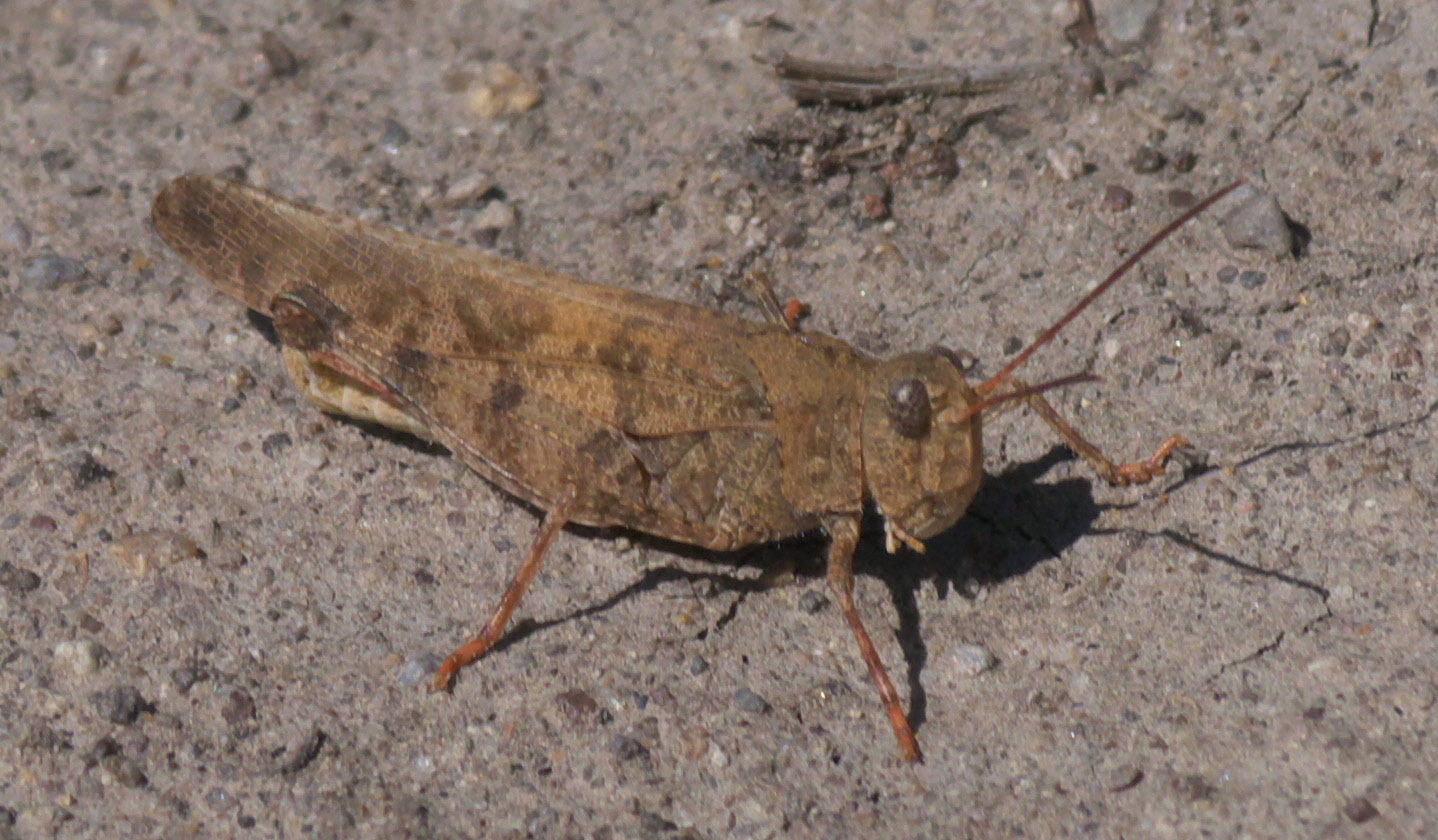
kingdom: Animalia
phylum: Arthropoda
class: Insecta
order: Orthoptera
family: Acrididae
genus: Spharagemon
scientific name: Spharagemon collare
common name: Mottled sand grasshopper
